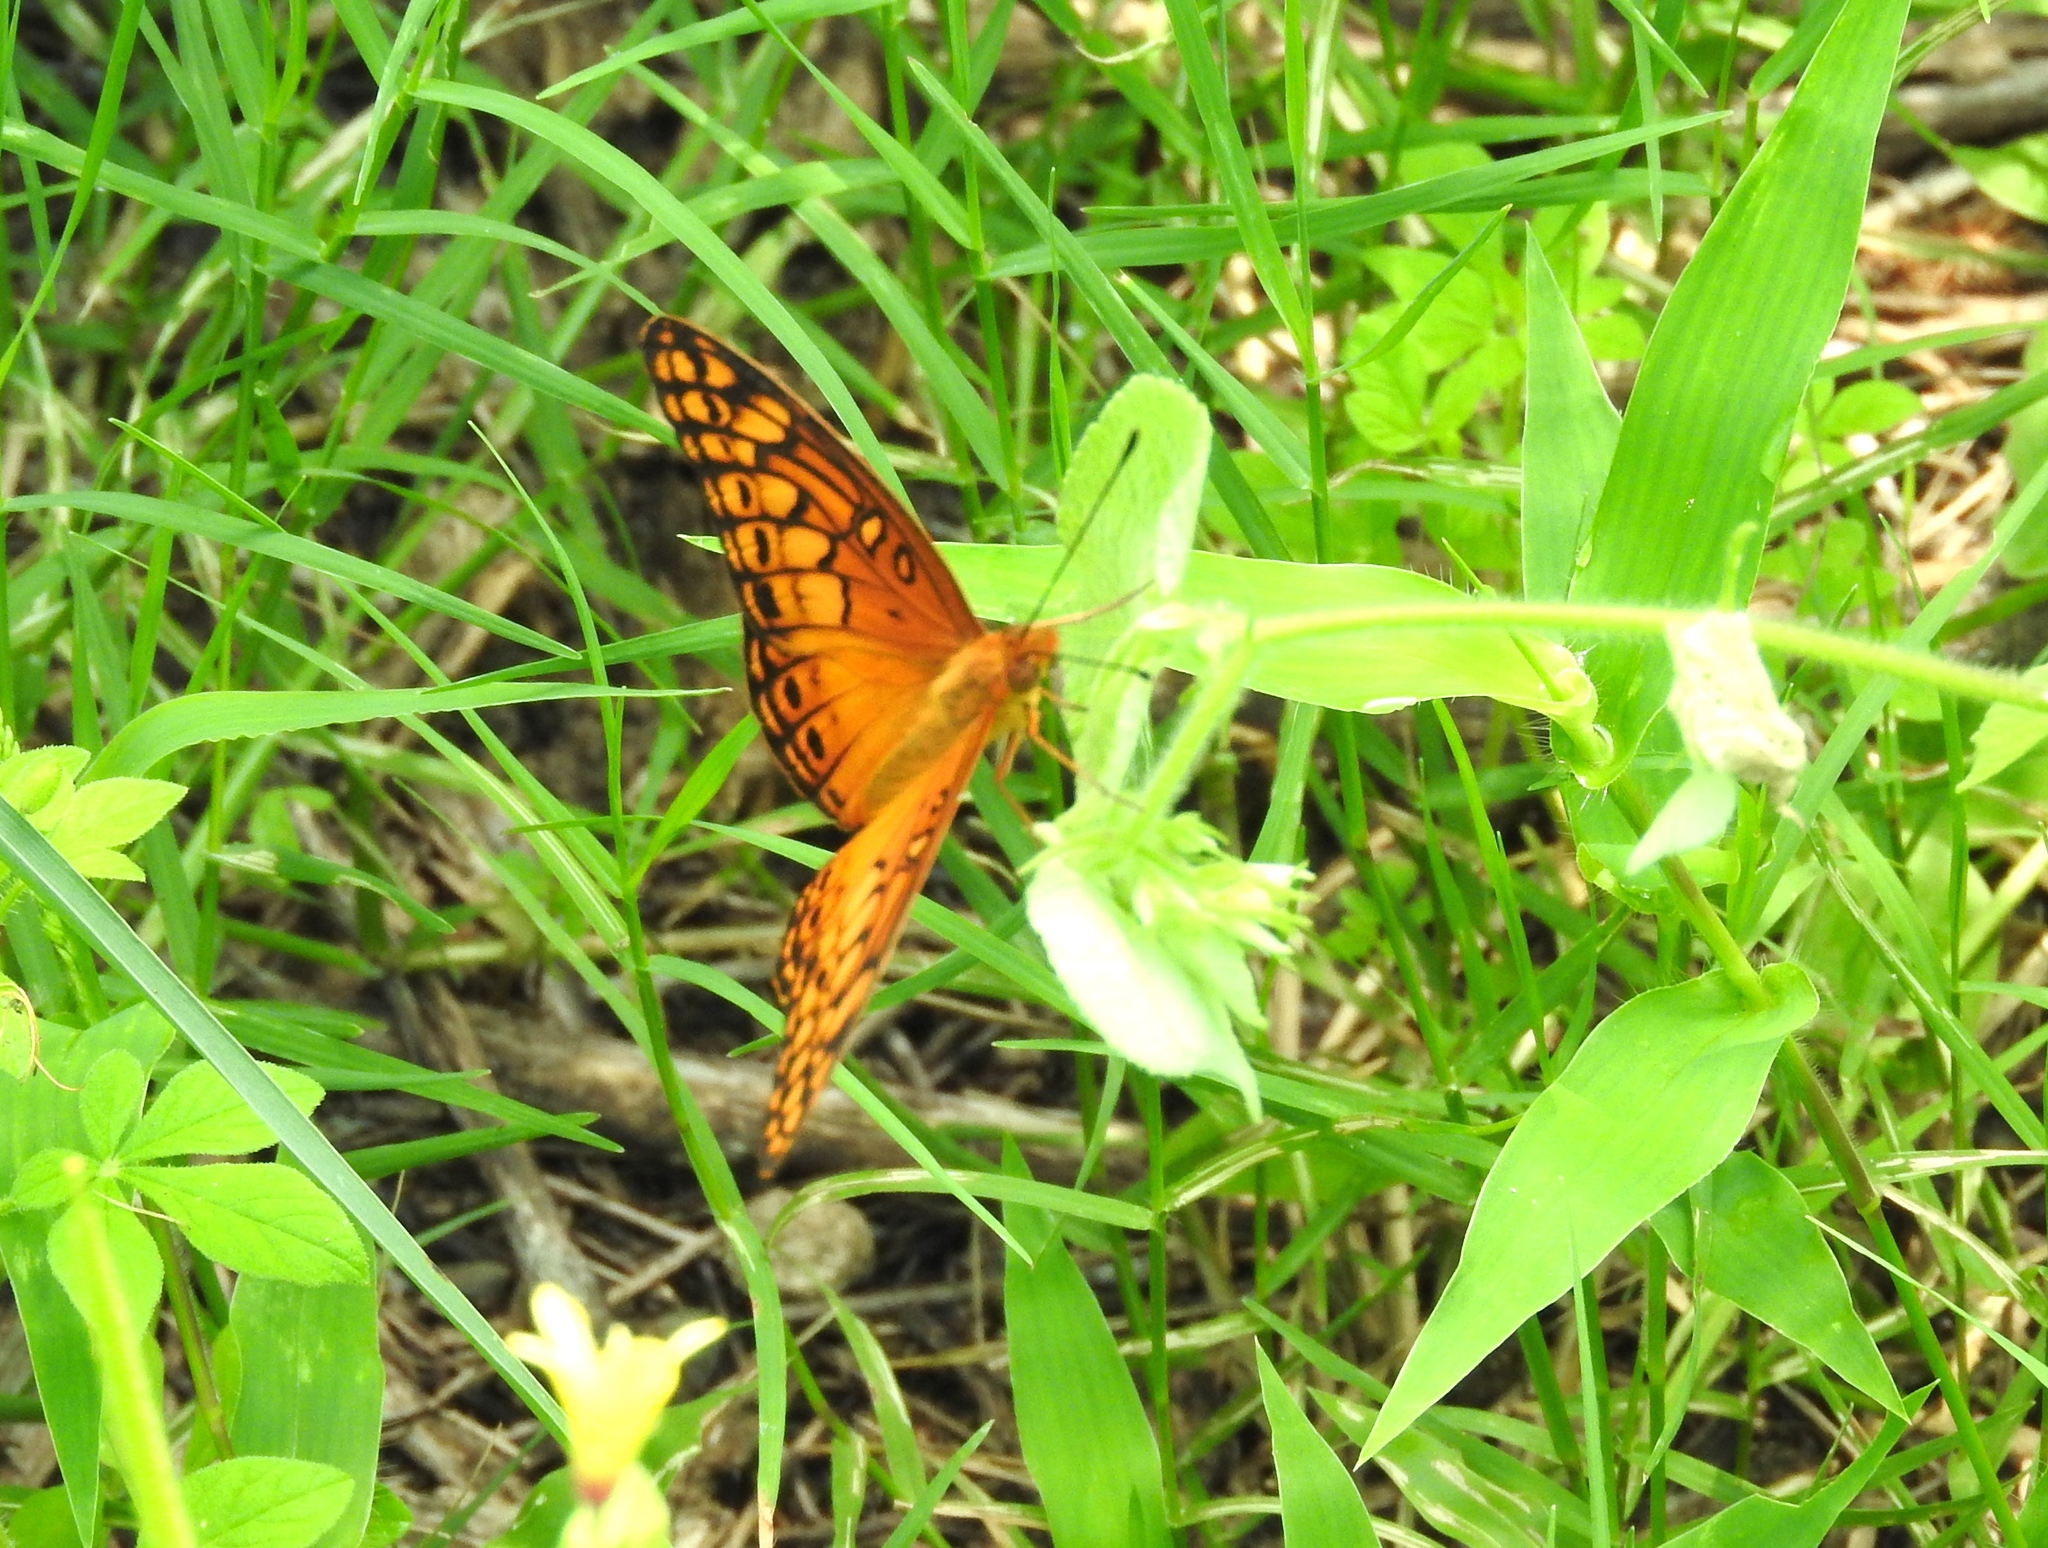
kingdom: Animalia
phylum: Arthropoda
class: Insecta
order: Lepidoptera
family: Nymphalidae
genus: Euptoieta
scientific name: Euptoieta hegesia
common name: Mexican fritillary
